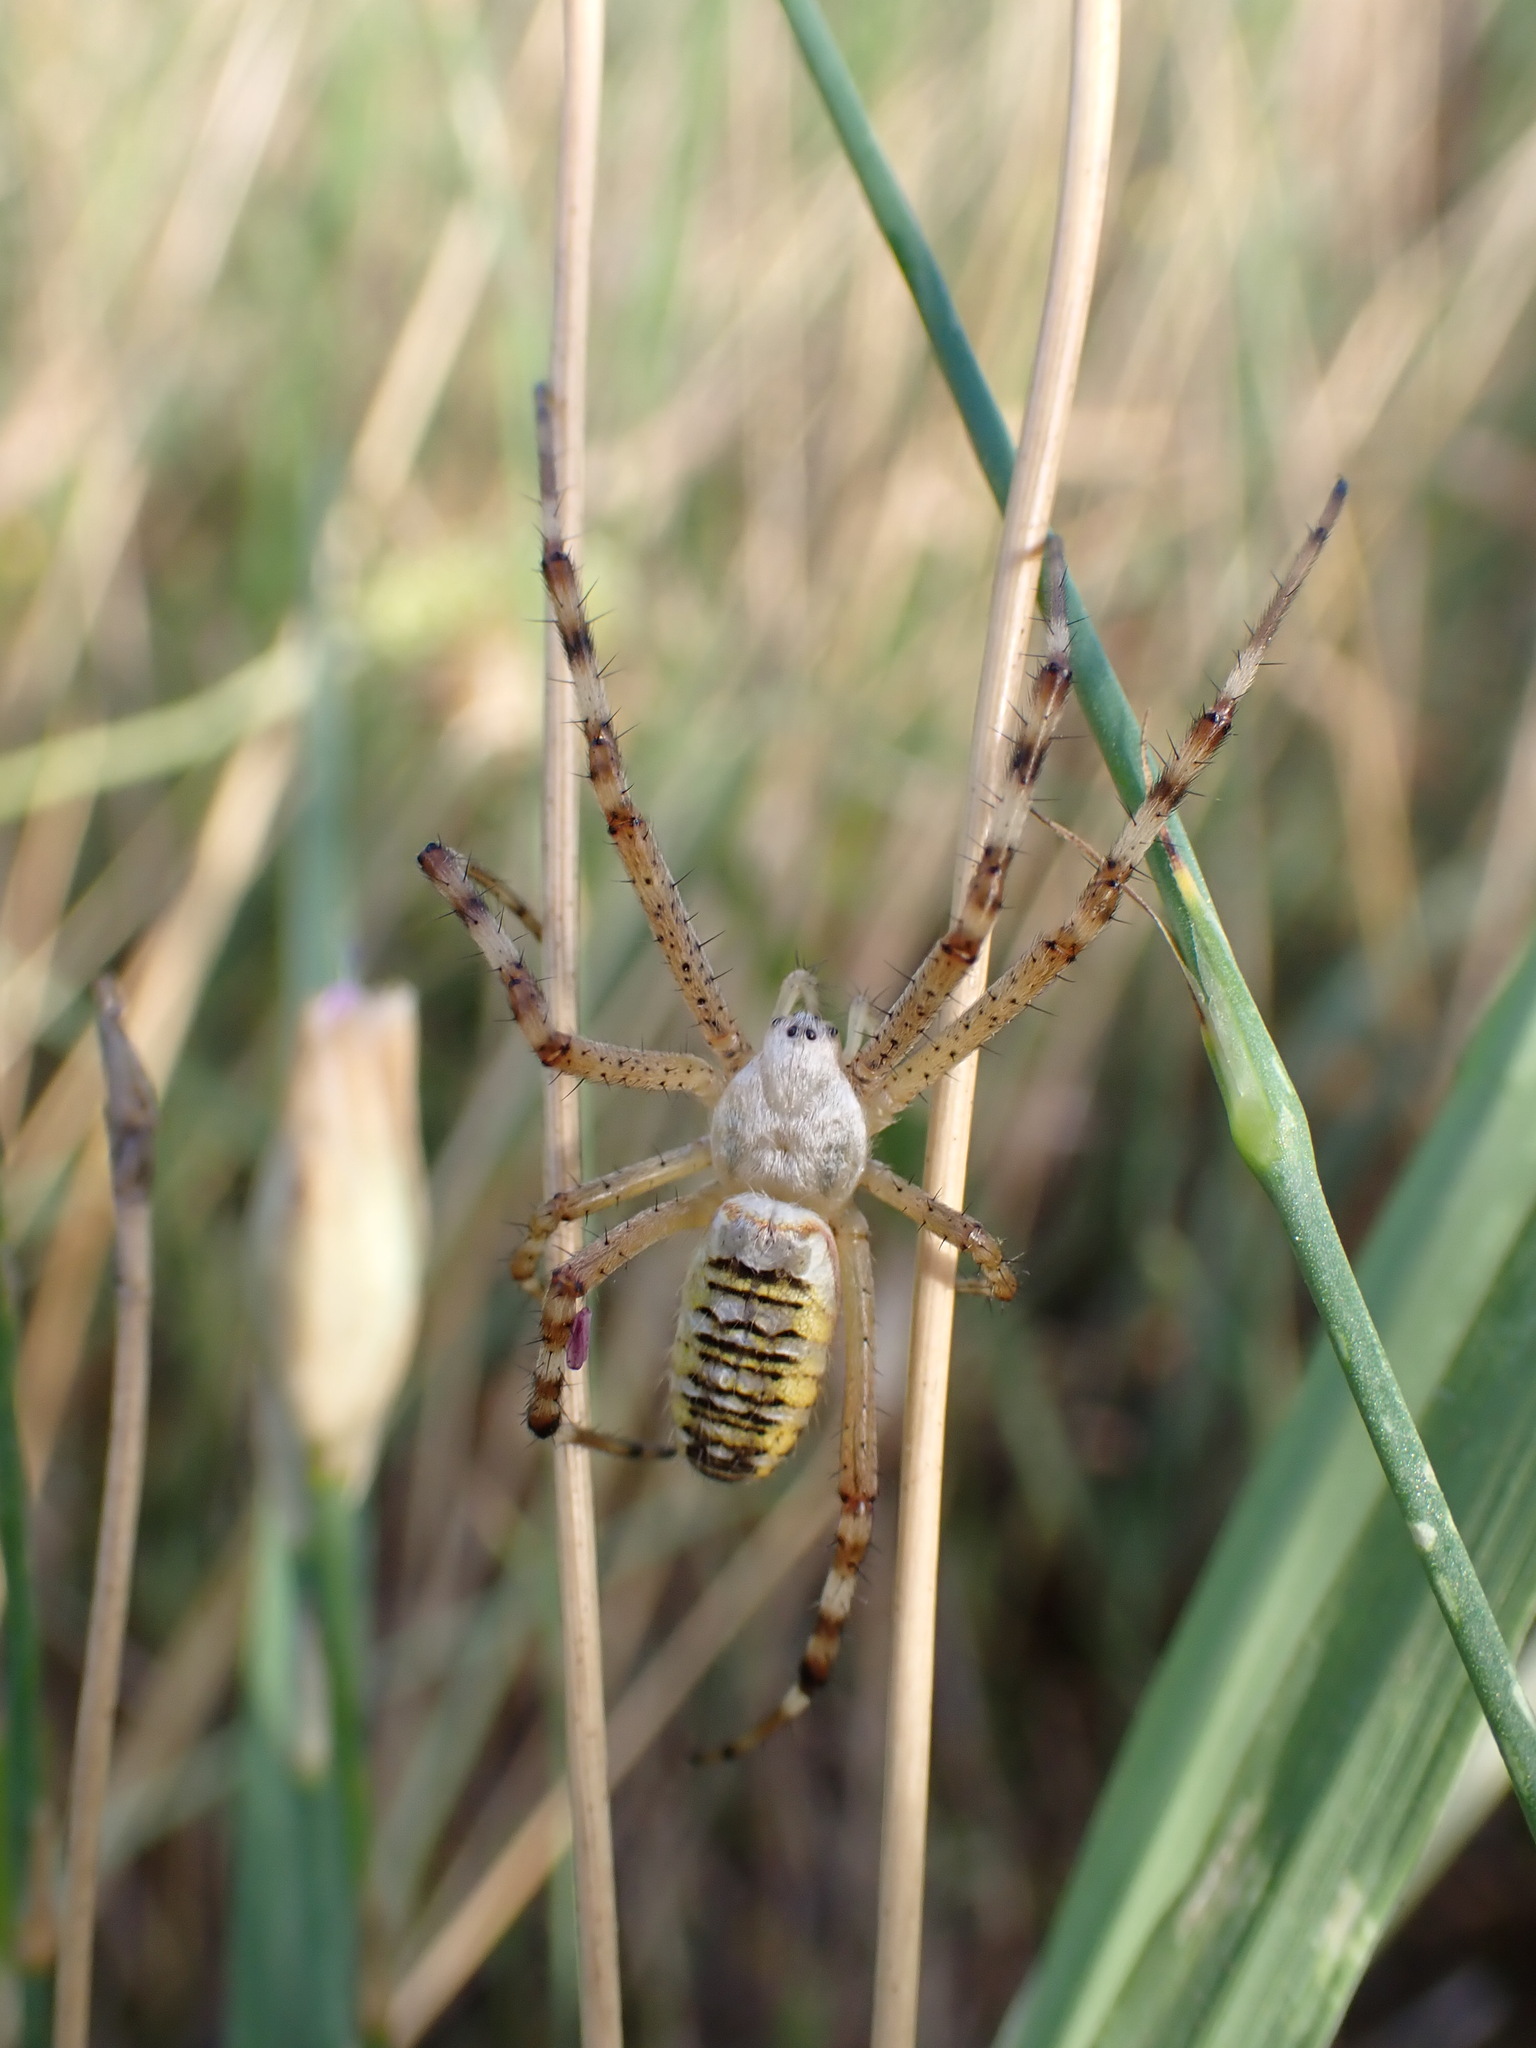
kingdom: Animalia
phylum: Arthropoda
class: Arachnida
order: Araneae
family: Araneidae
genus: Argiope
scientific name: Argiope bruennichi
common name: Wasp spider
